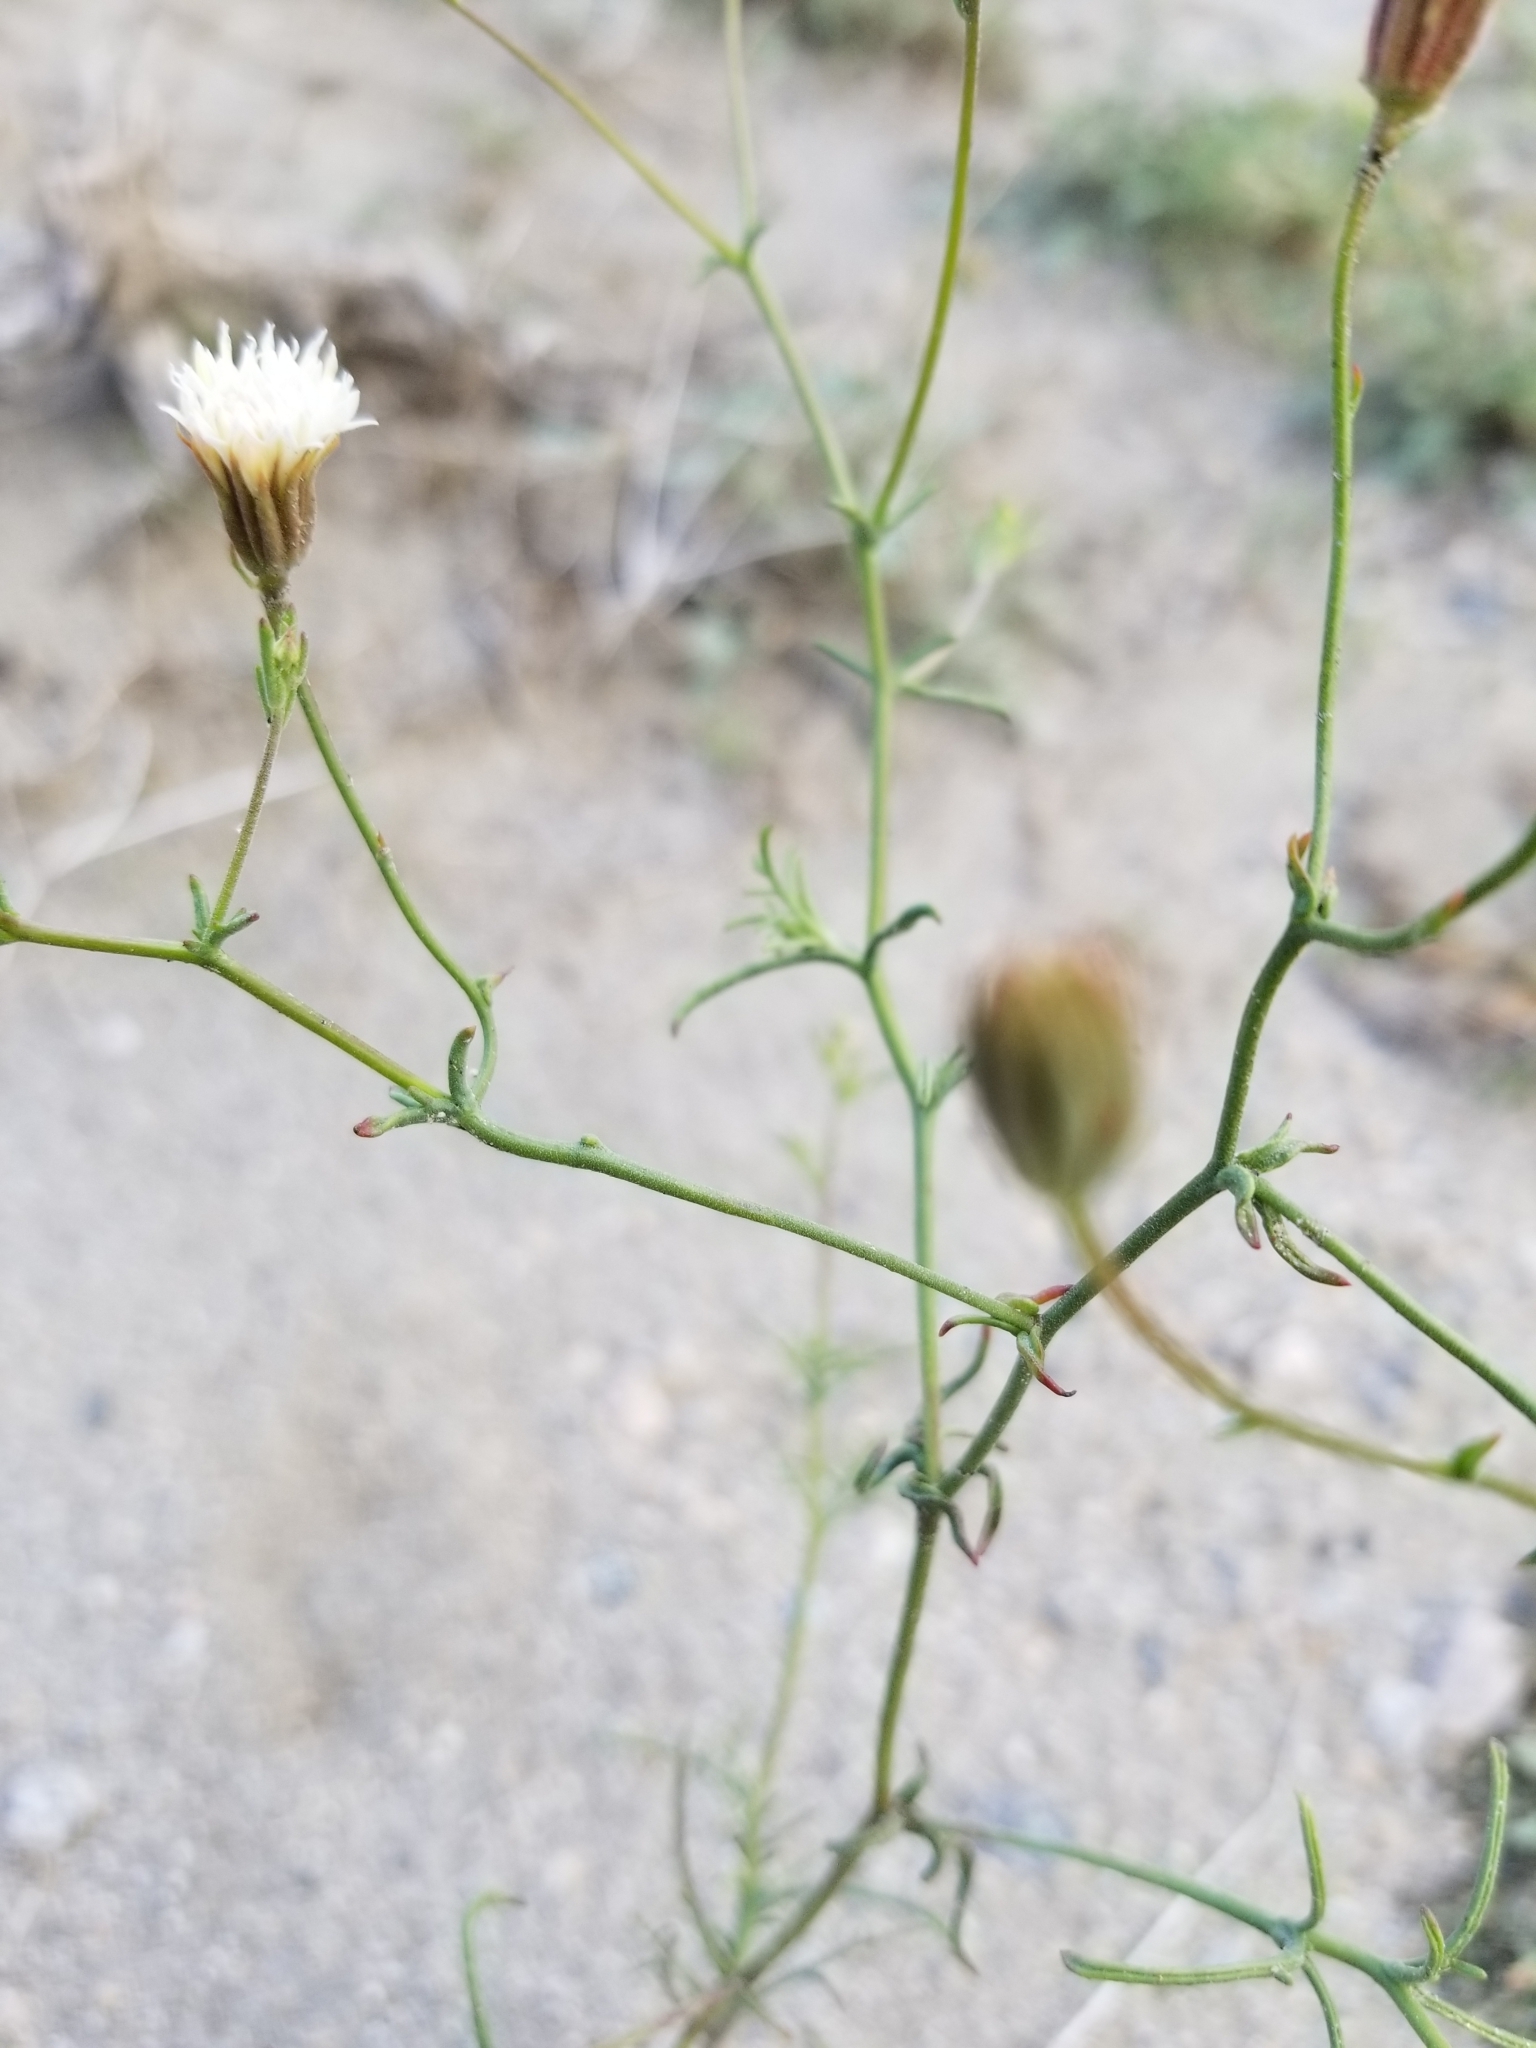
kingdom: Plantae
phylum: Tracheophyta
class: Magnoliopsida
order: Asterales
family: Asteraceae
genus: Chaenactis
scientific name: Chaenactis carphoclinia
